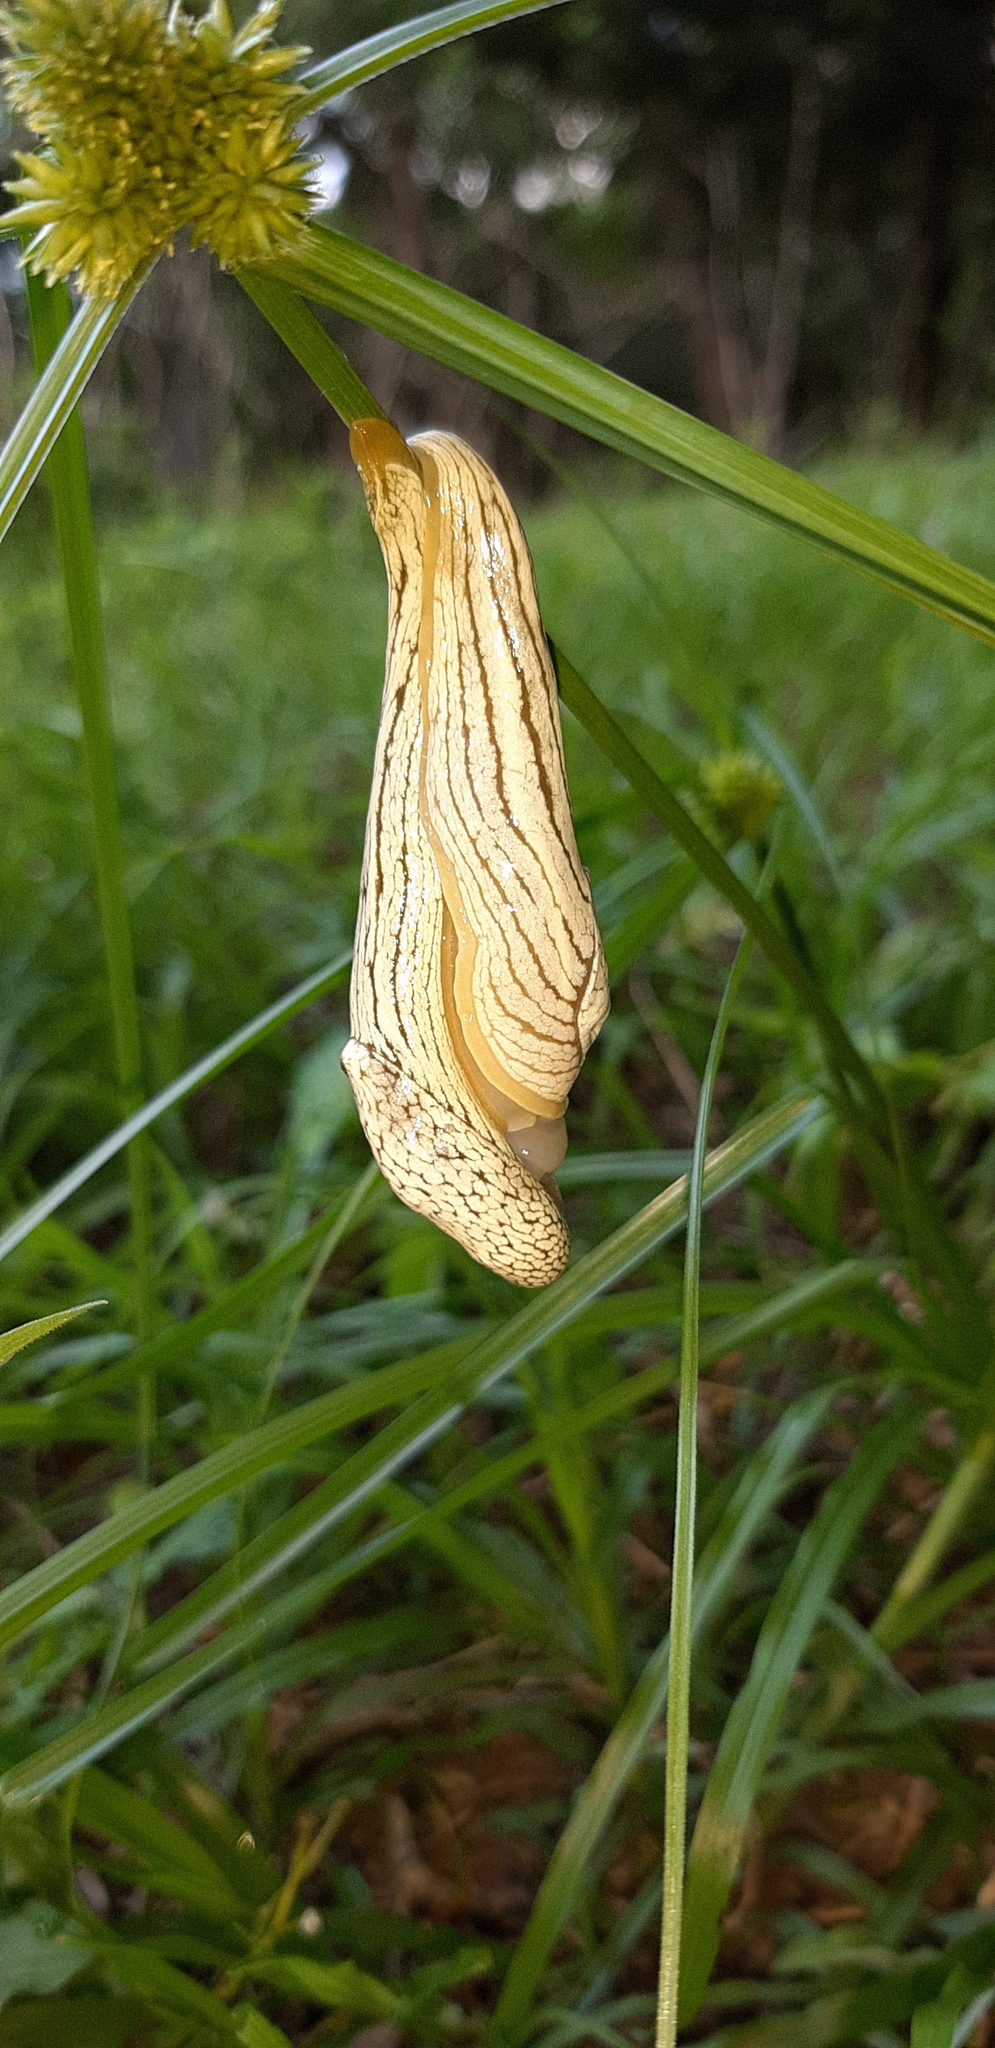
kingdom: Animalia
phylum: Mollusca
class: Gastropoda
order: Stylommatophora
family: Urocyclidae
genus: Elisolimax
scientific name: Elisolimax flavescens
